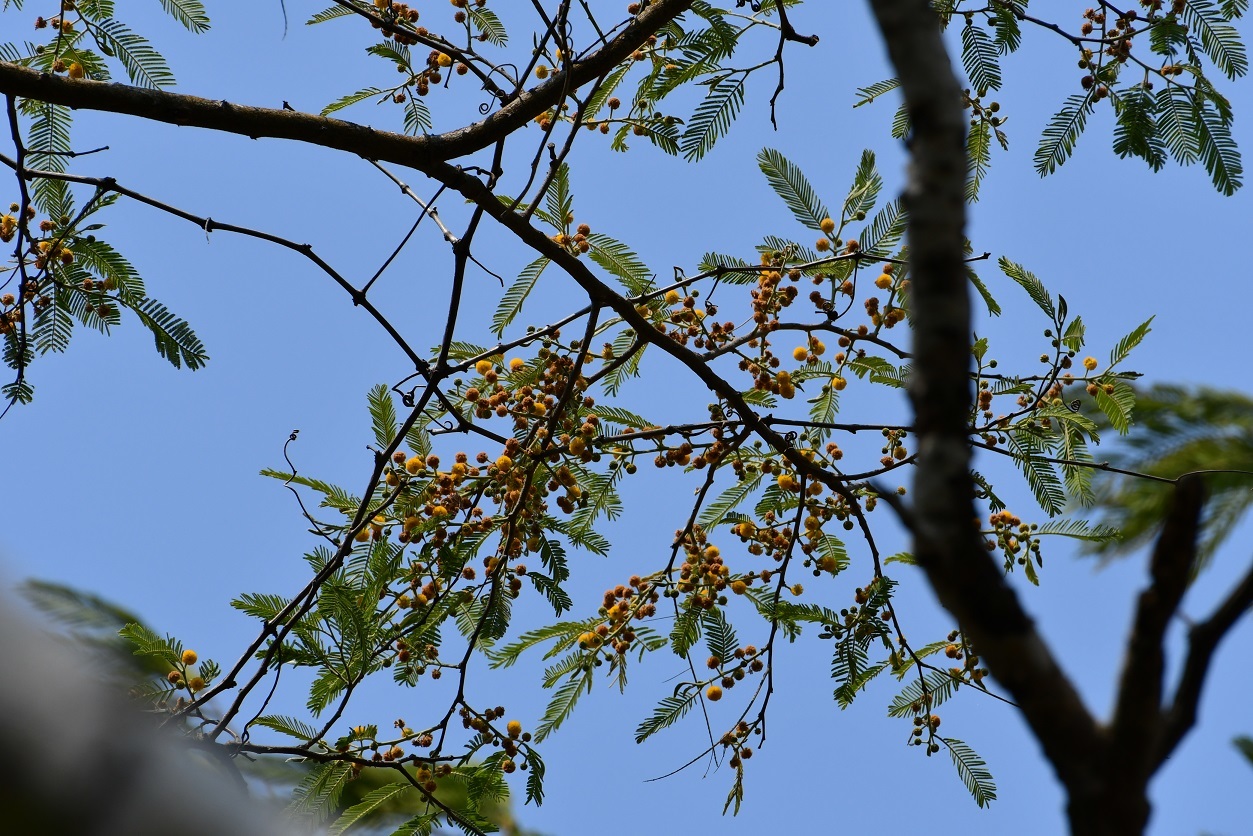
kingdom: Plantae
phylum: Tracheophyta
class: Magnoliopsida
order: Fabales
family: Fabaceae
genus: Vachellia
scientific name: Vachellia pennatula
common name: Fern-leaf acacia
